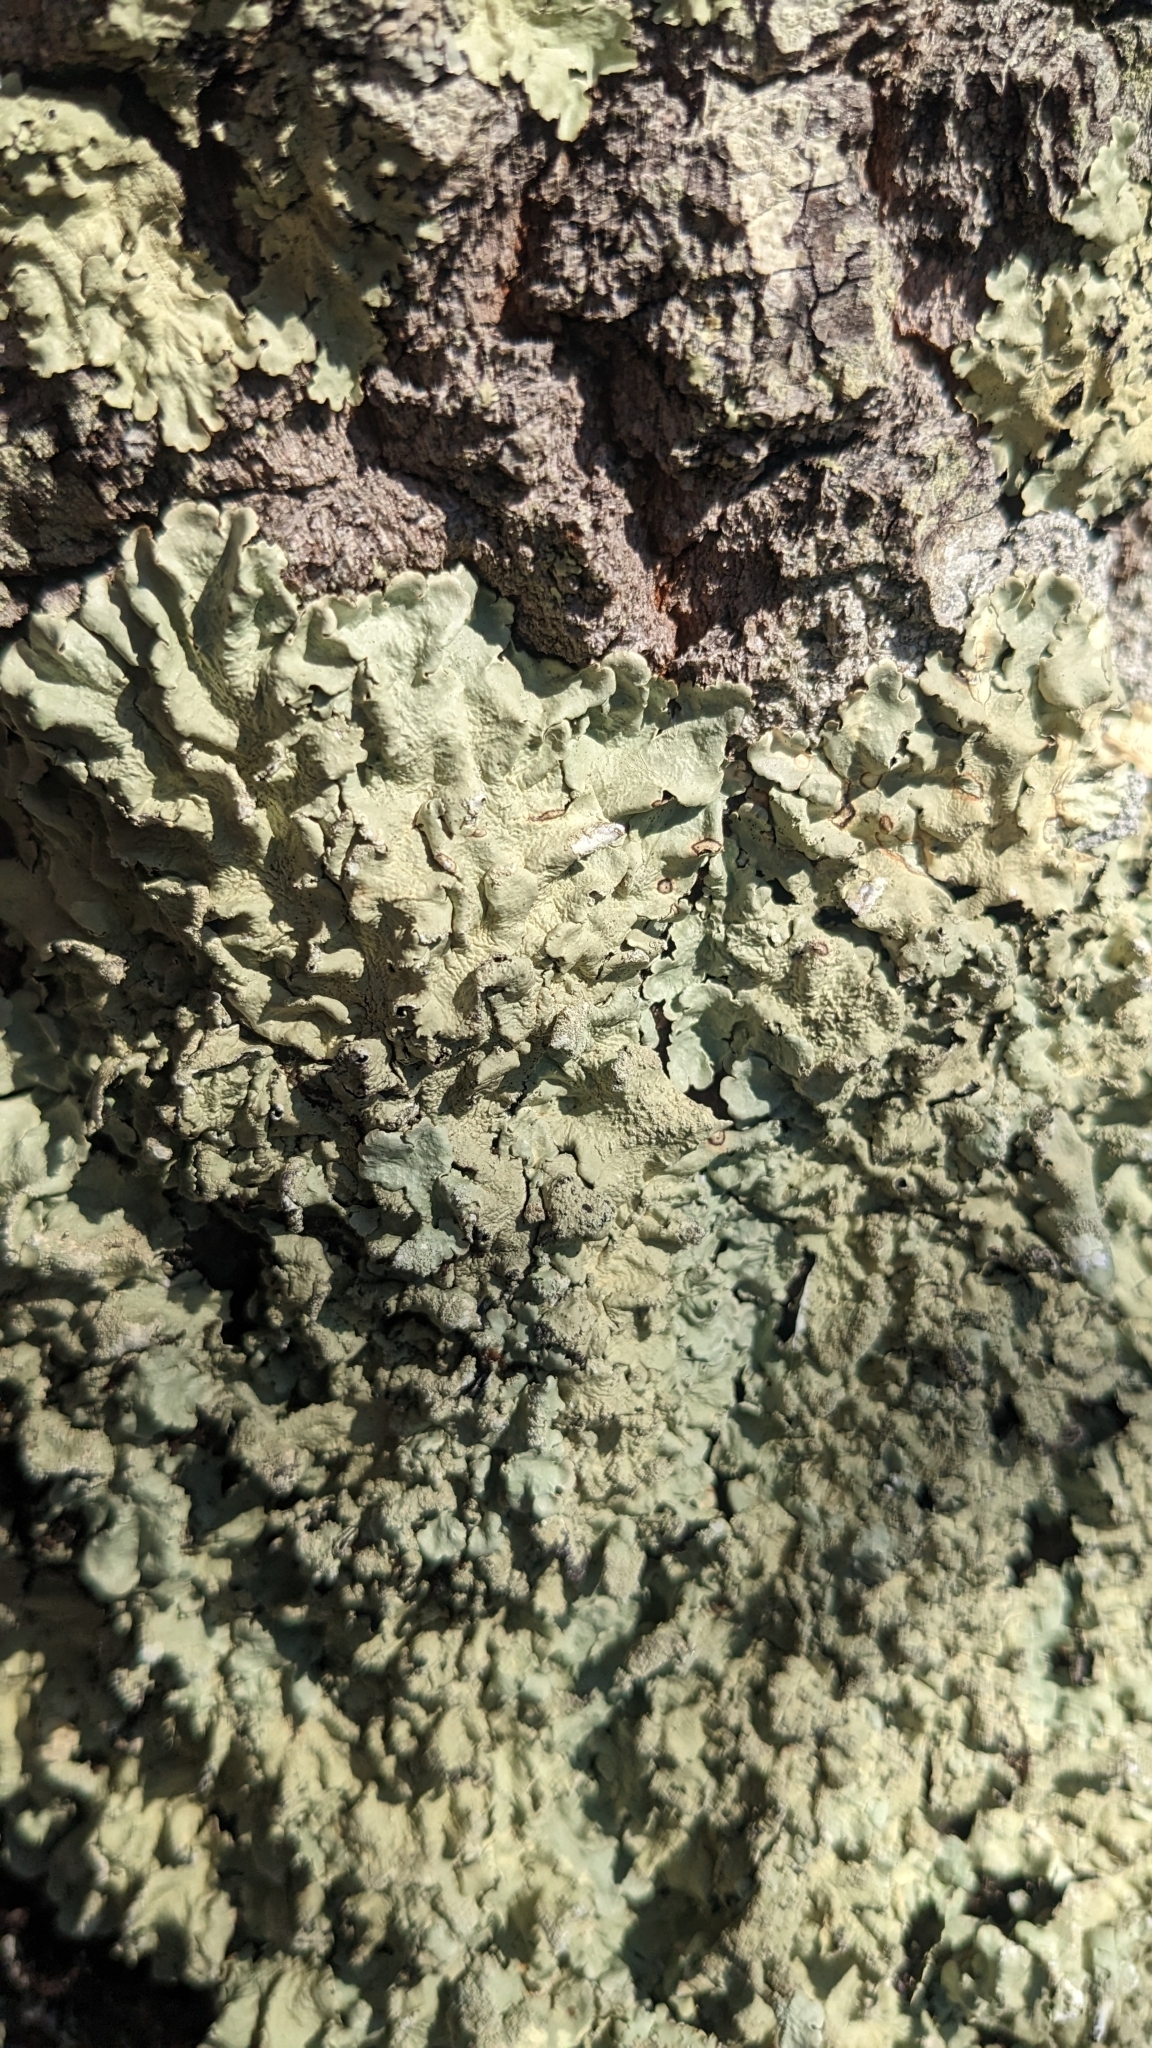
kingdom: Fungi
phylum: Ascomycota
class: Lecanoromycetes
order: Lecanorales
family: Parmeliaceae
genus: Flavoparmelia
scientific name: Flavoparmelia caperata
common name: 40-mile per hour lichen
